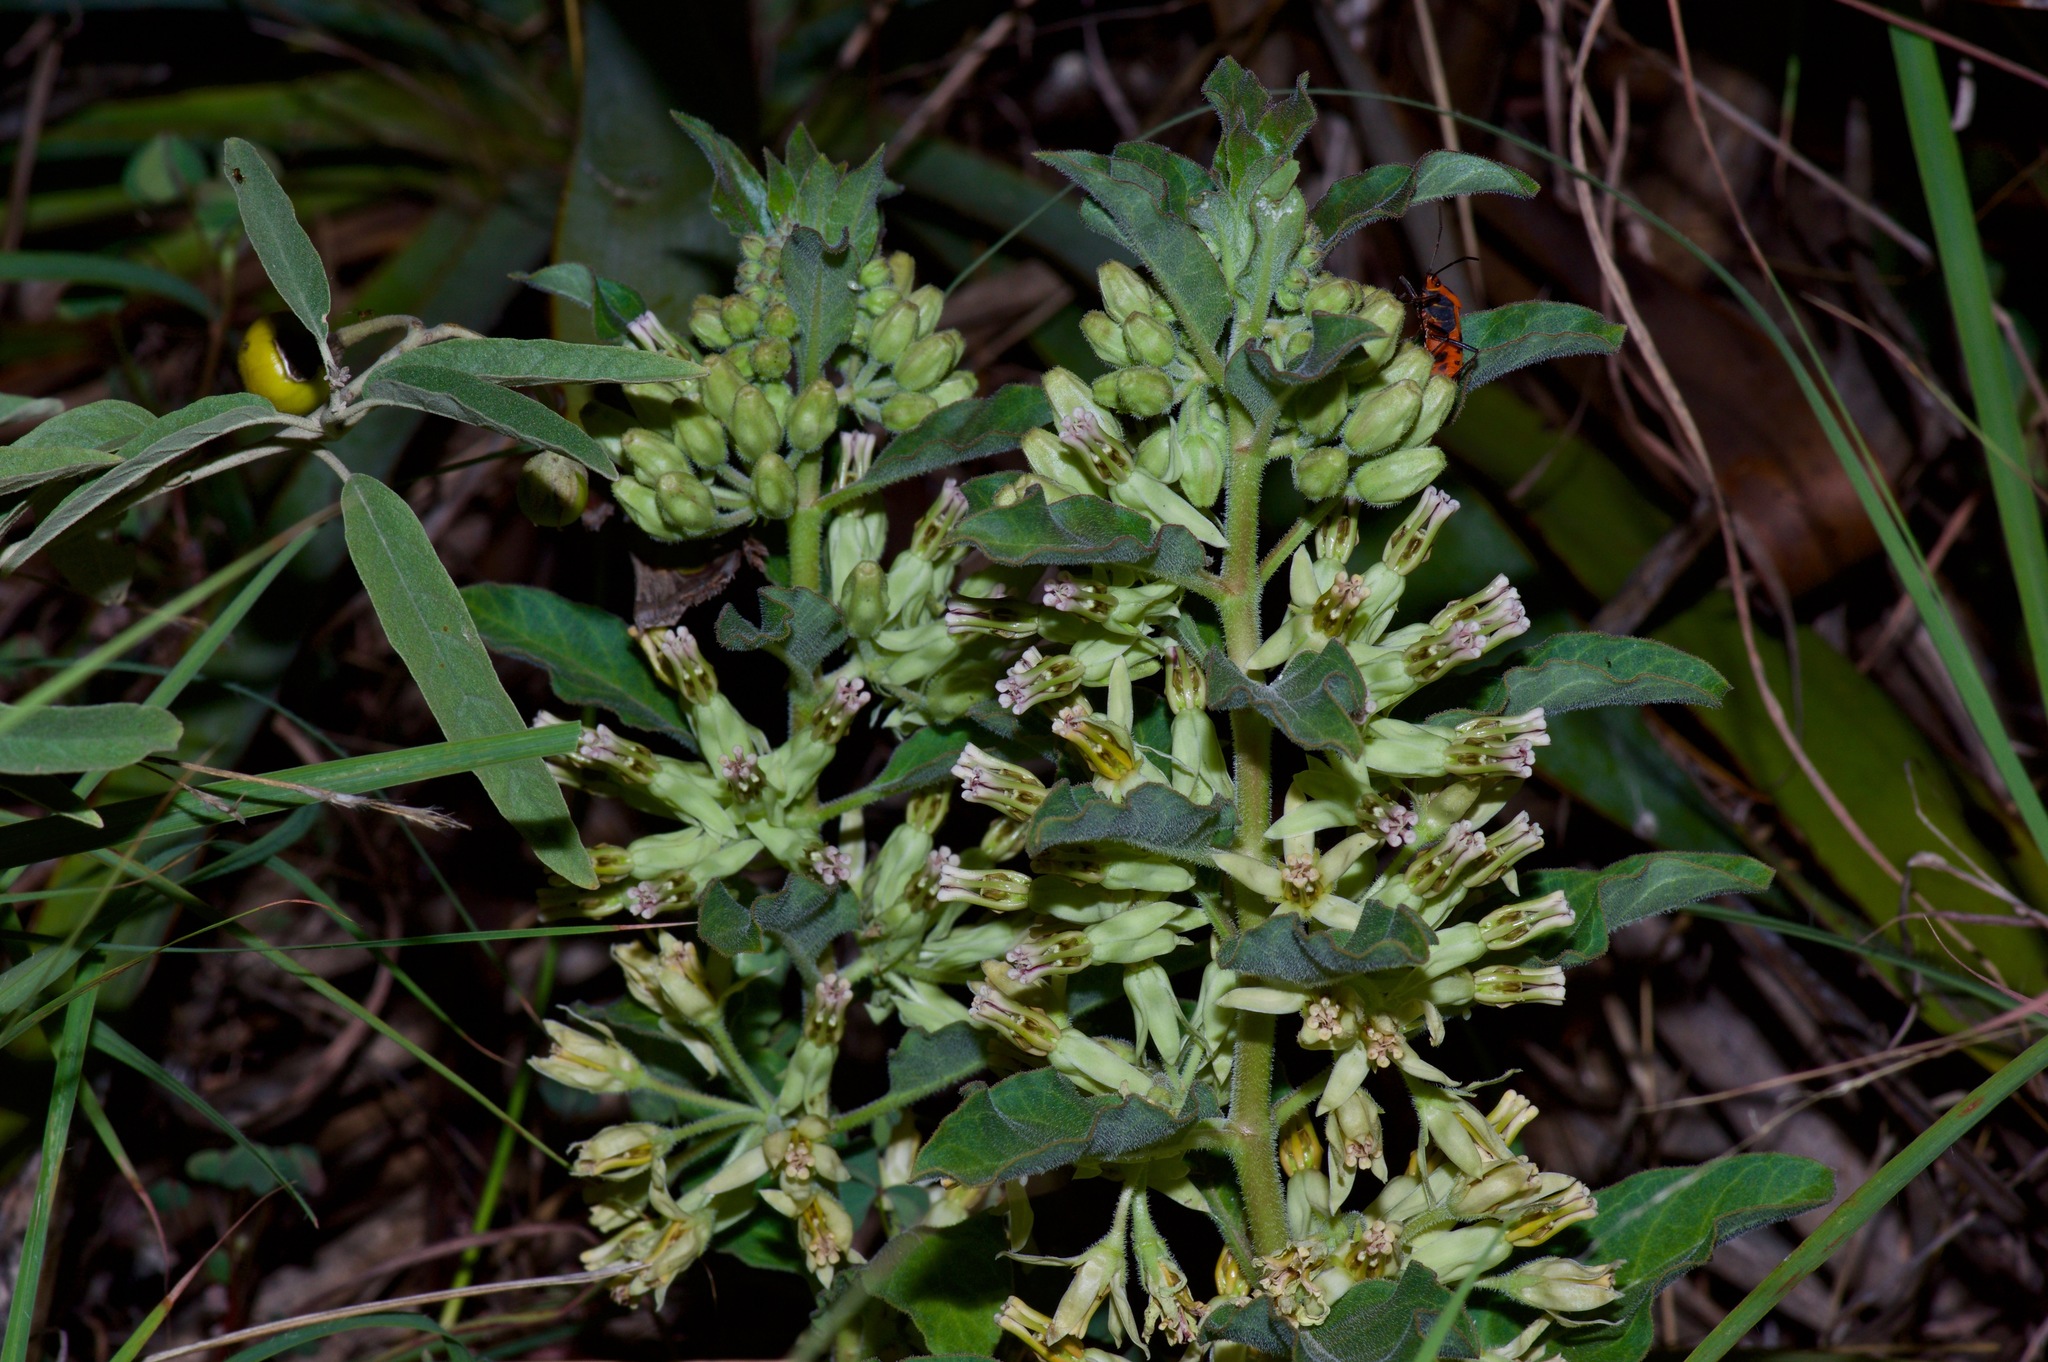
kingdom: Plantae
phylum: Tracheophyta
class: Magnoliopsida
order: Gentianales
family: Apocynaceae
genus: Asclepias
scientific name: Asclepias oenotheroides
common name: Zizotes milkweed
